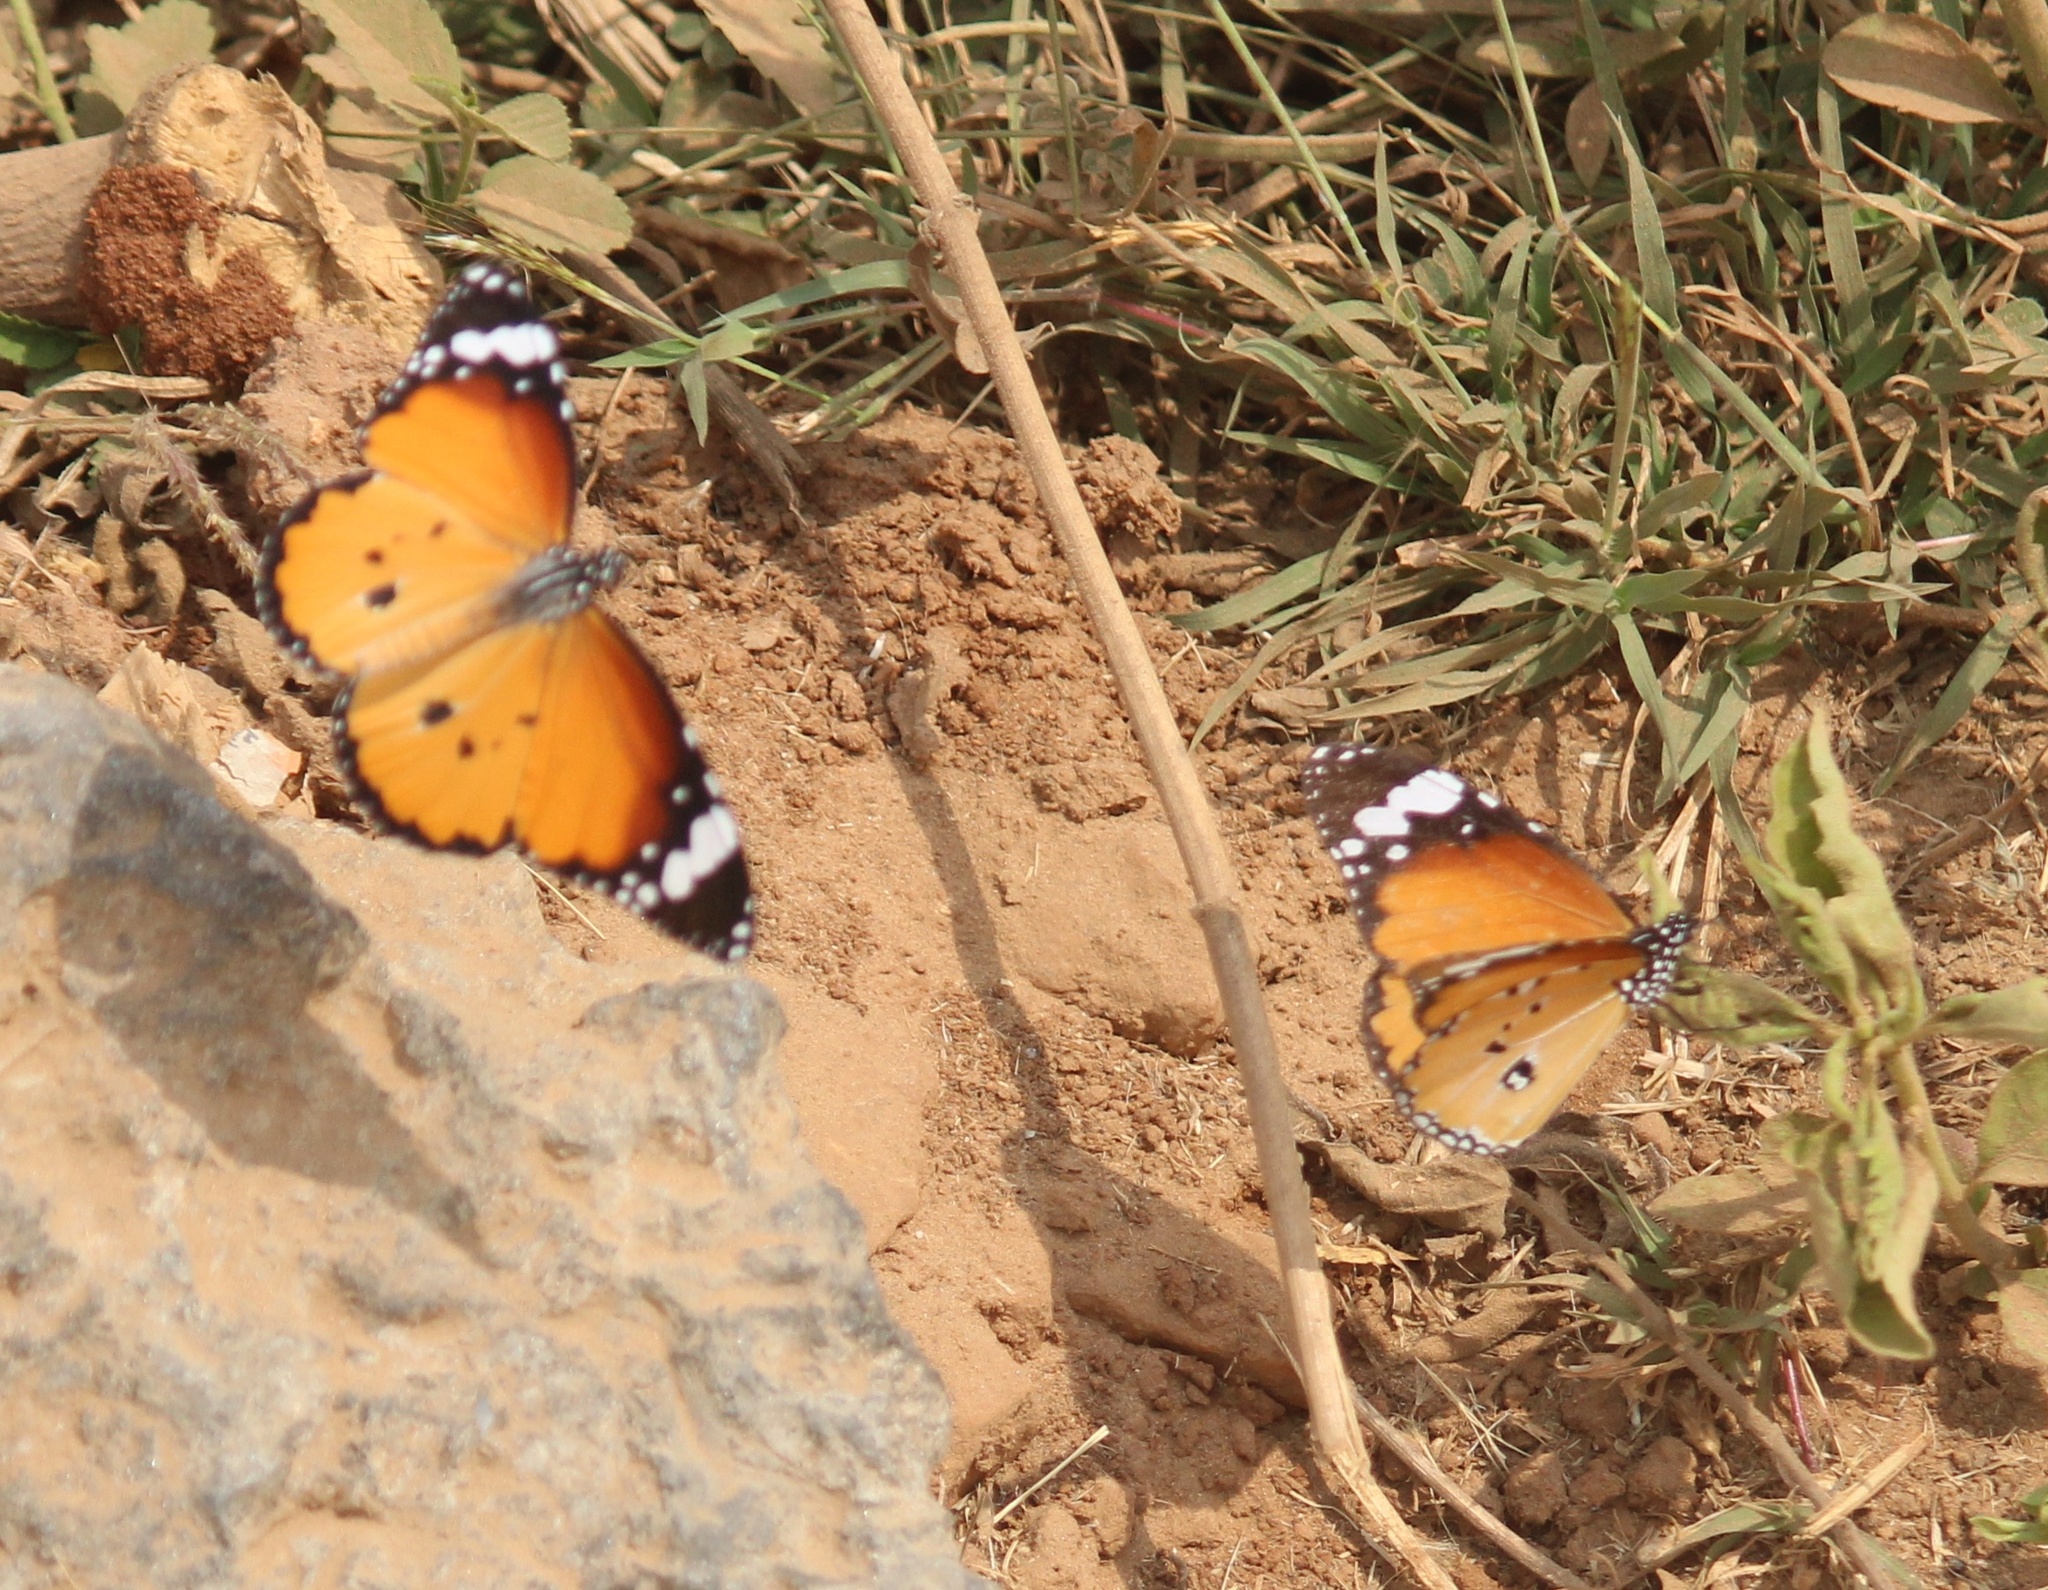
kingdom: Animalia
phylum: Arthropoda
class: Insecta
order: Lepidoptera
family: Nymphalidae
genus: Danaus
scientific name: Danaus chrysippus
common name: Plain tiger
